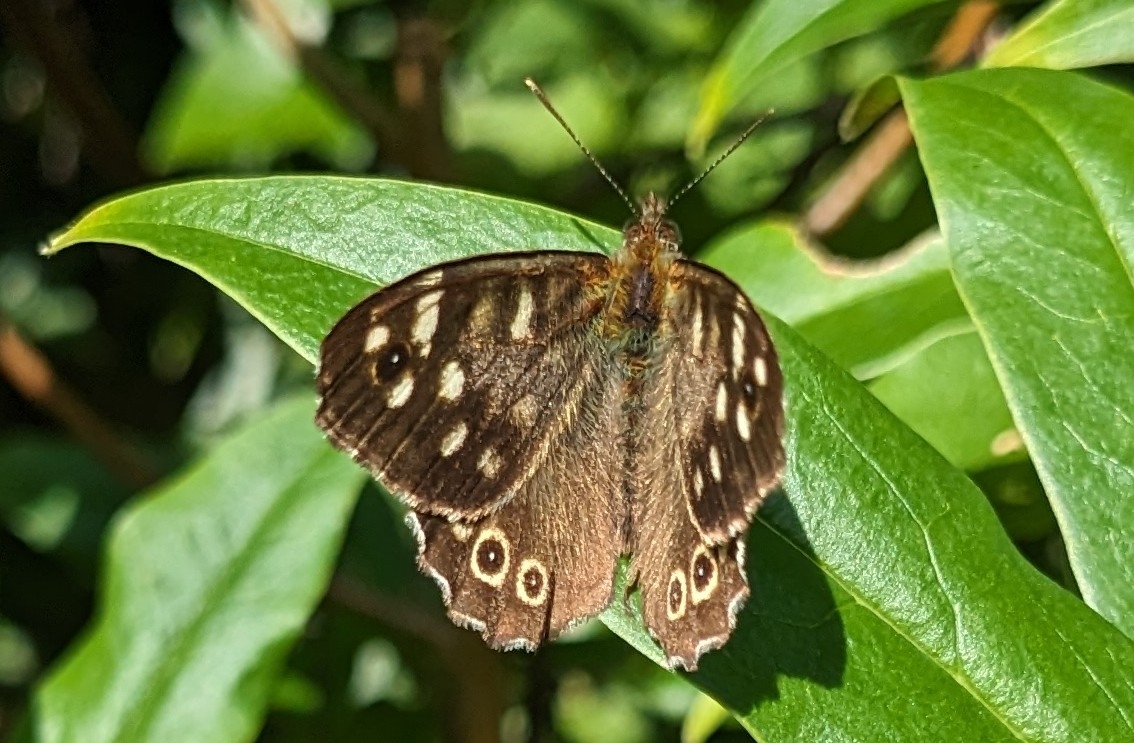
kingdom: Animalia
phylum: Arthropoda
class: Insecta
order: Lepidoptera
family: Nymphalidae
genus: Pararge
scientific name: Pararge aegeria
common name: Speckled wood
